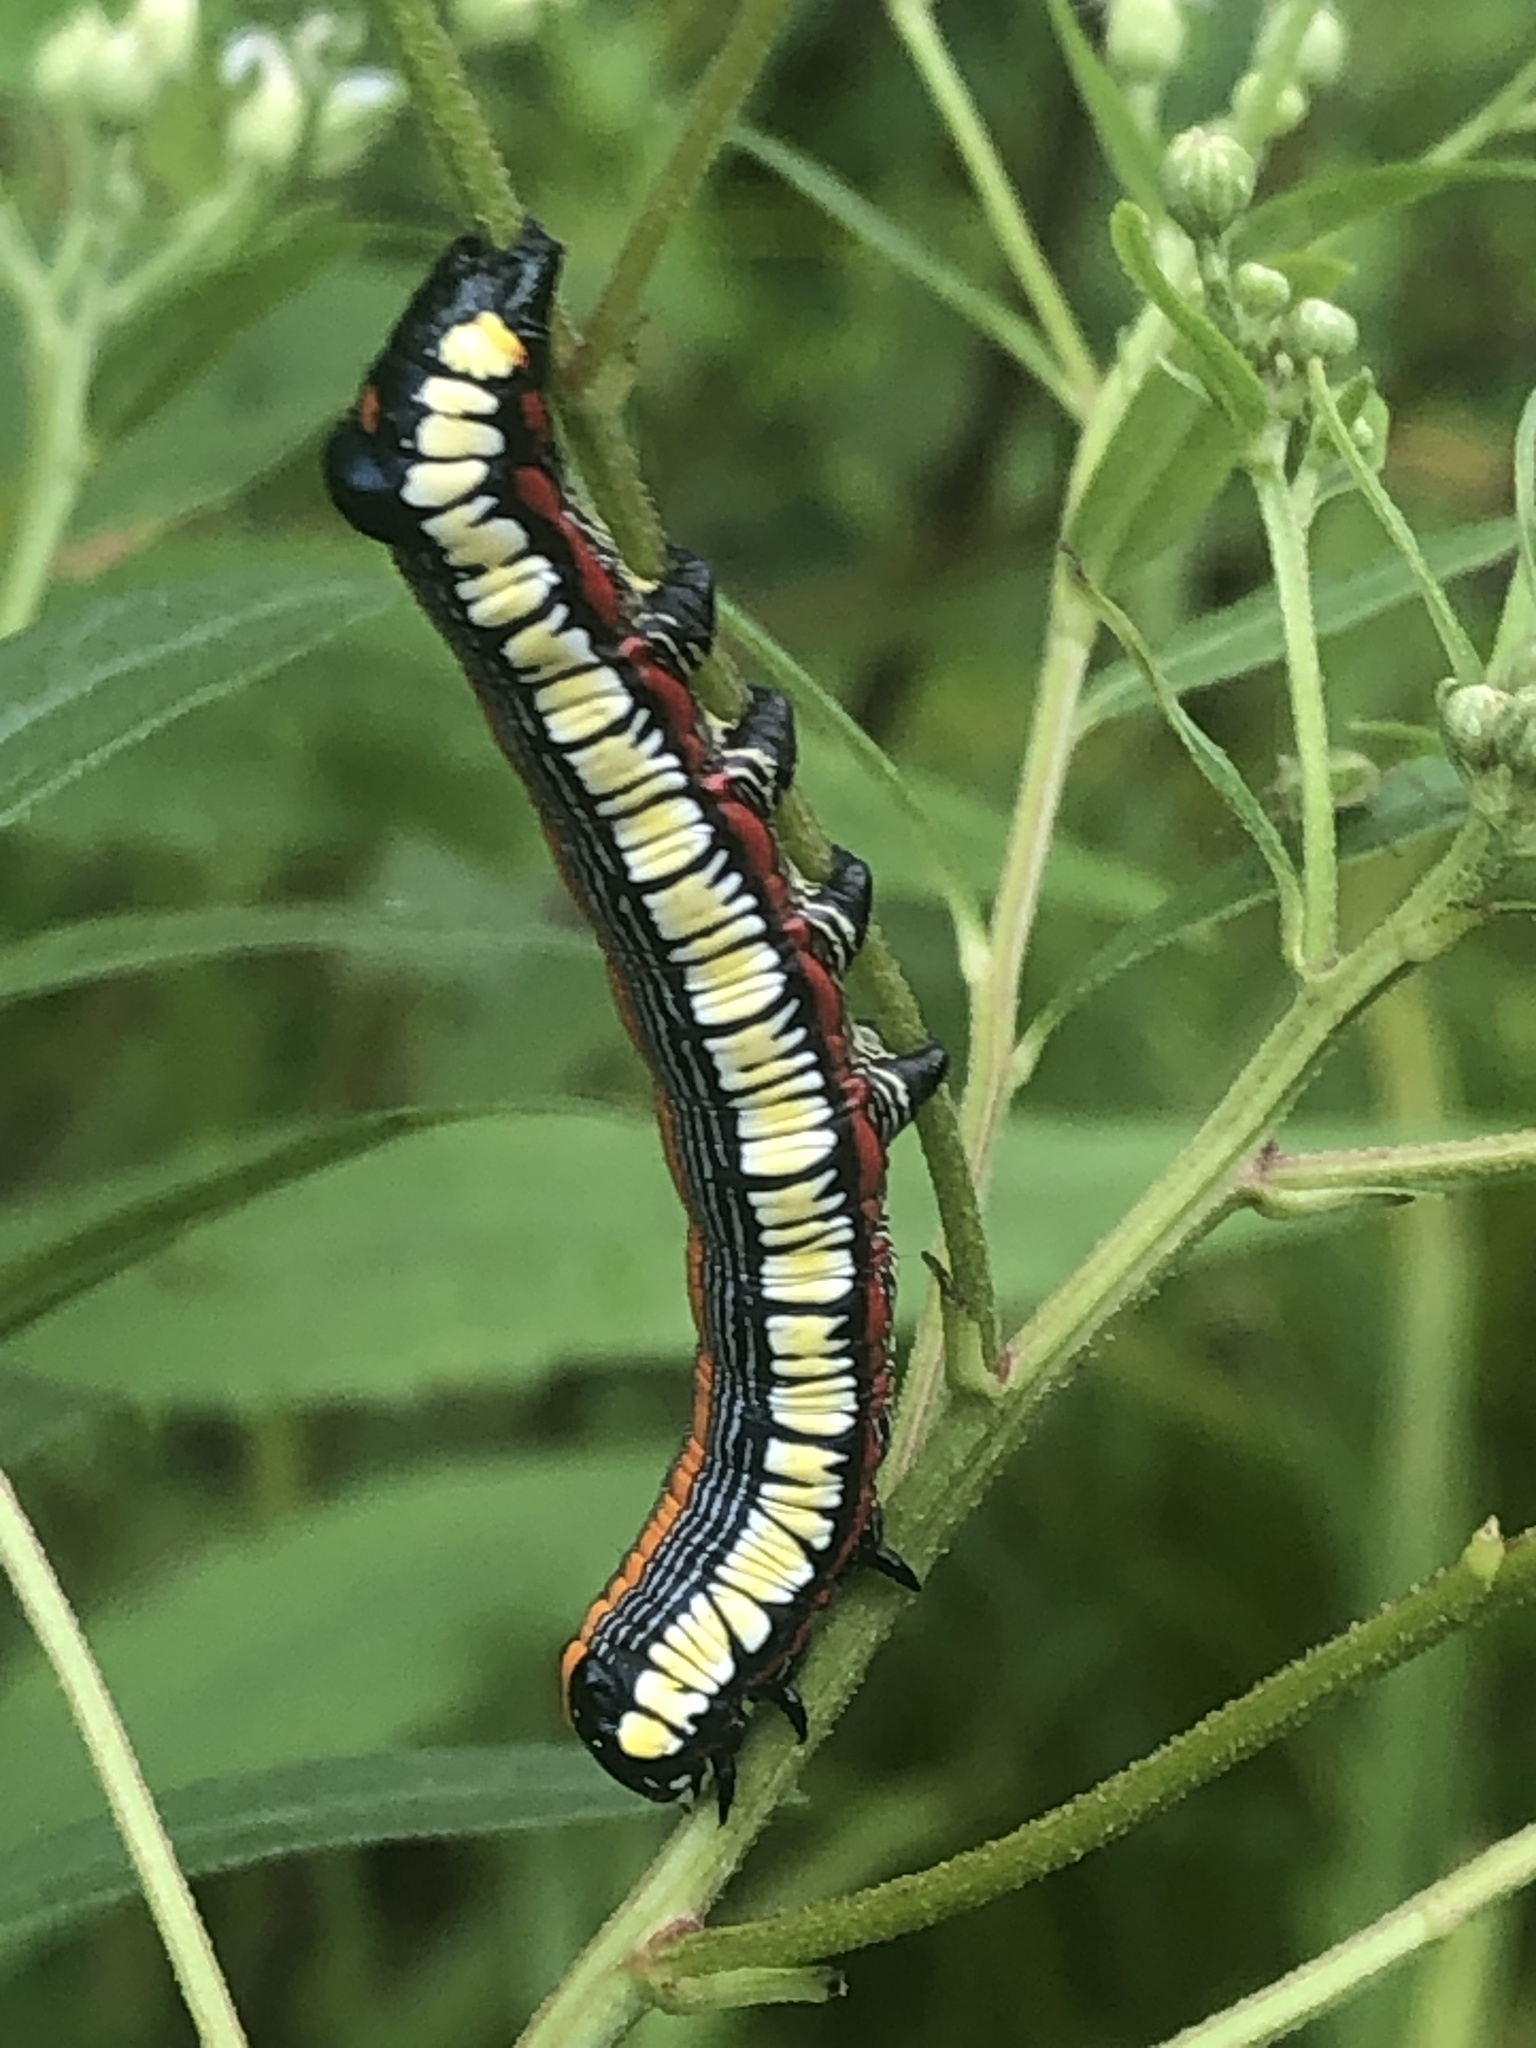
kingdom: Animalia
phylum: Arthropoda
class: Insecta
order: Lepidoptera
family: Noctuidae
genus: Cucullia
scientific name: Cucullia convexipennis
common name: Brown-hooded owlet
